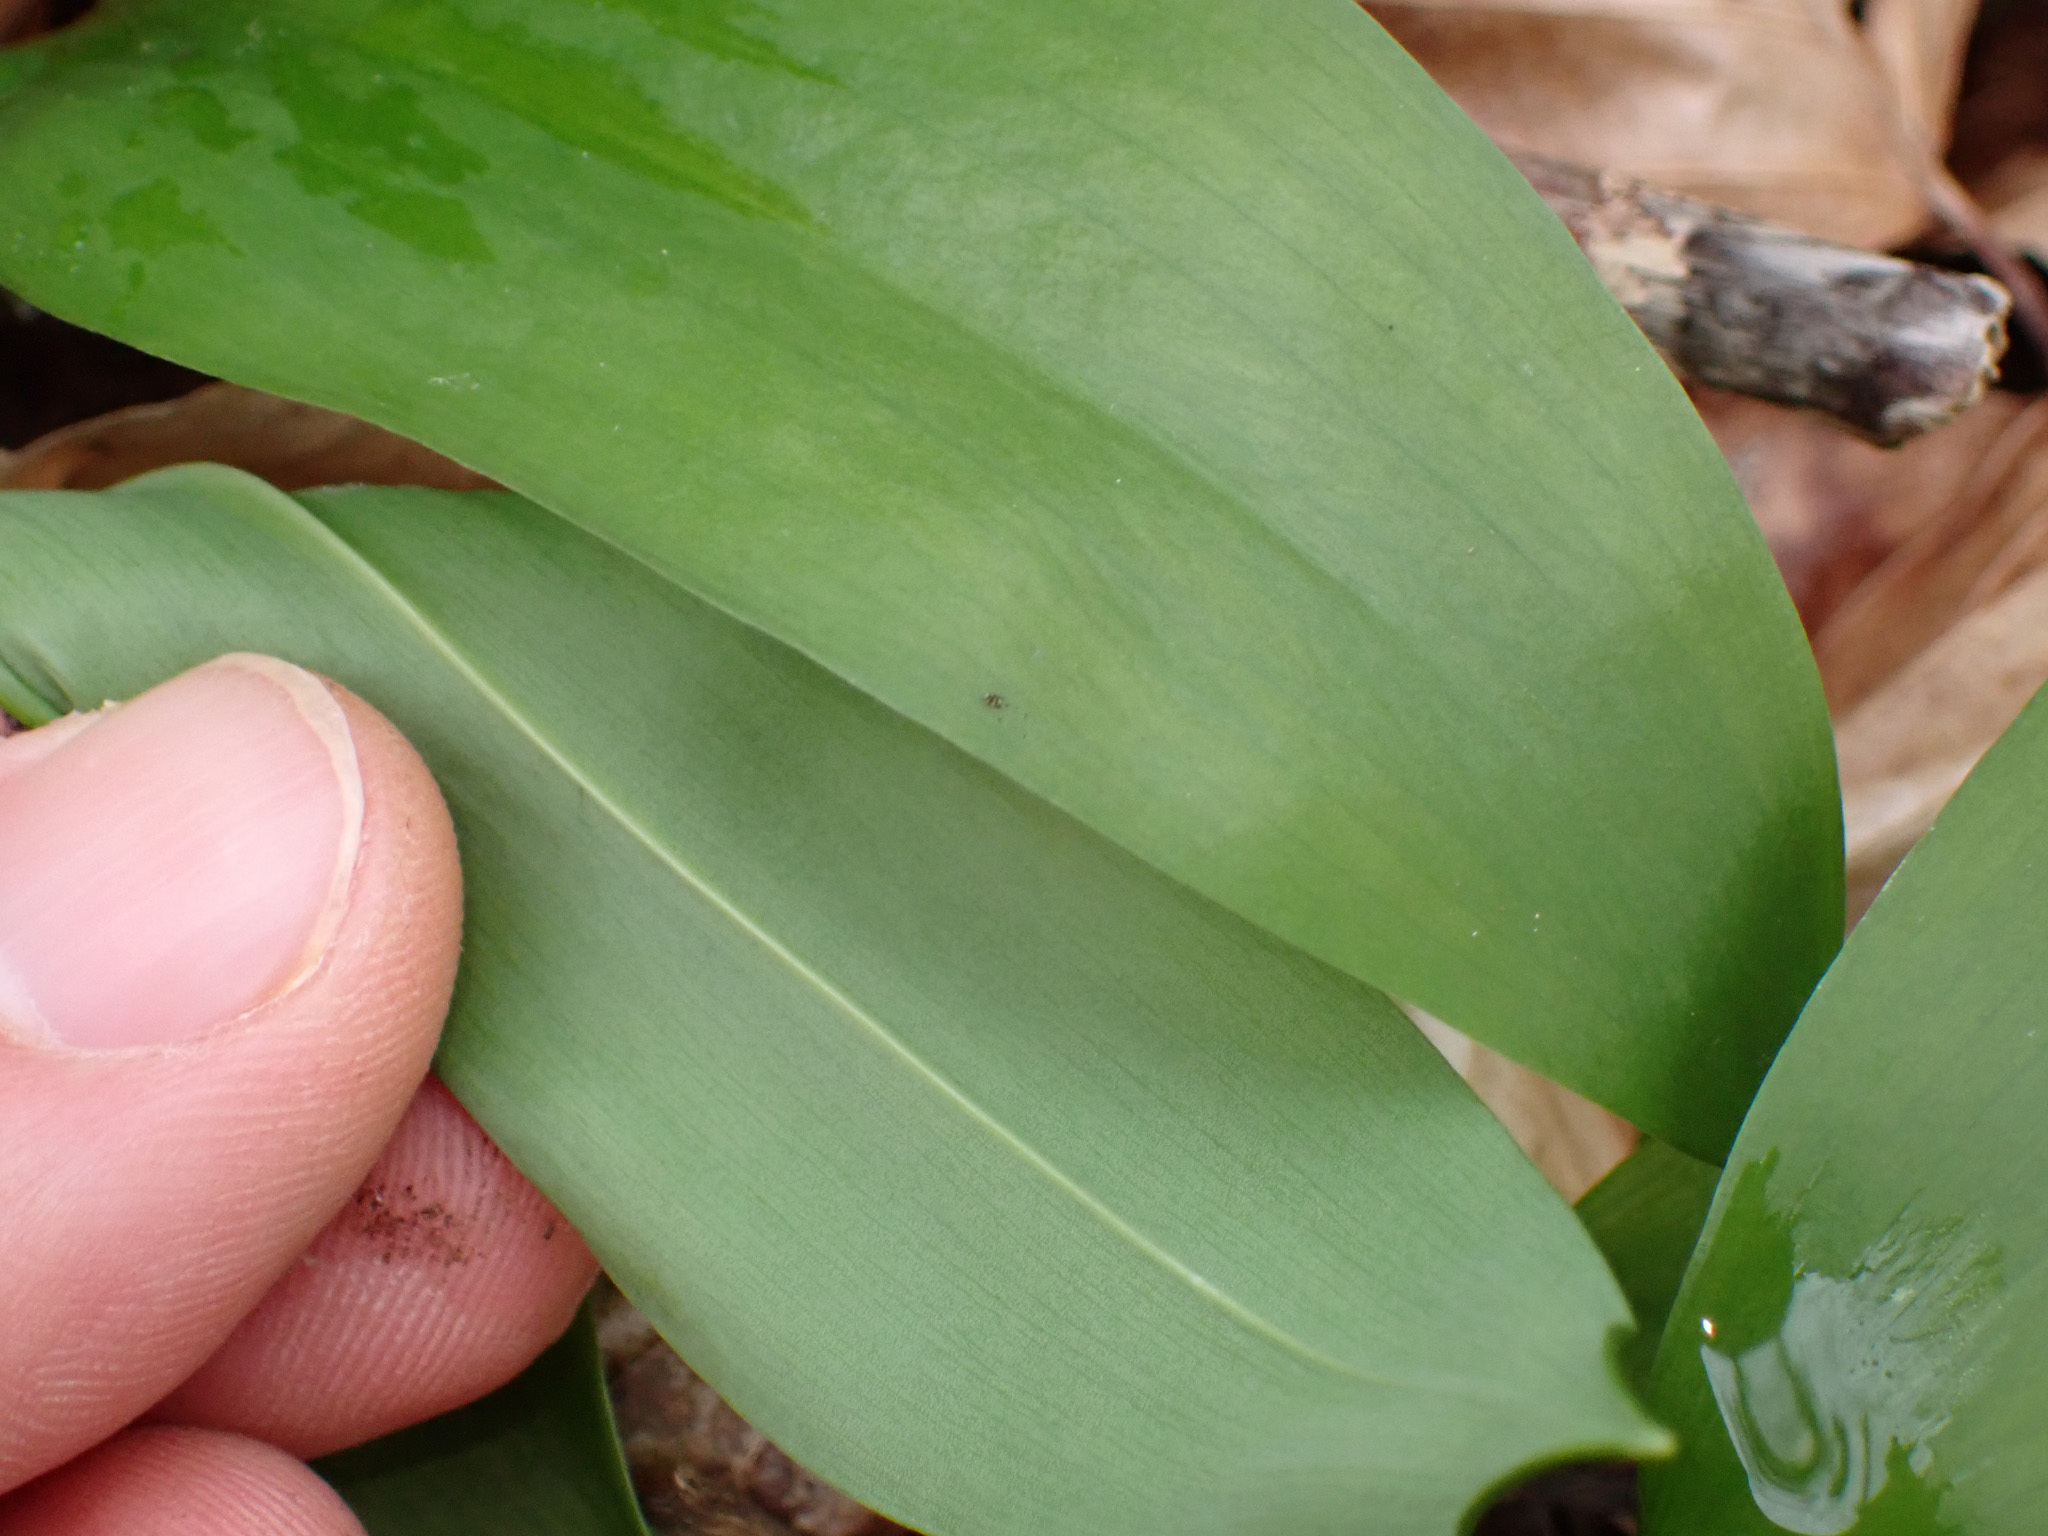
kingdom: Plantae
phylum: Tracheophyta
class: Liliopsida
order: Asparagales
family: Amaryllidaceae
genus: Allium
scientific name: Allium ursinum
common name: Ramsons
